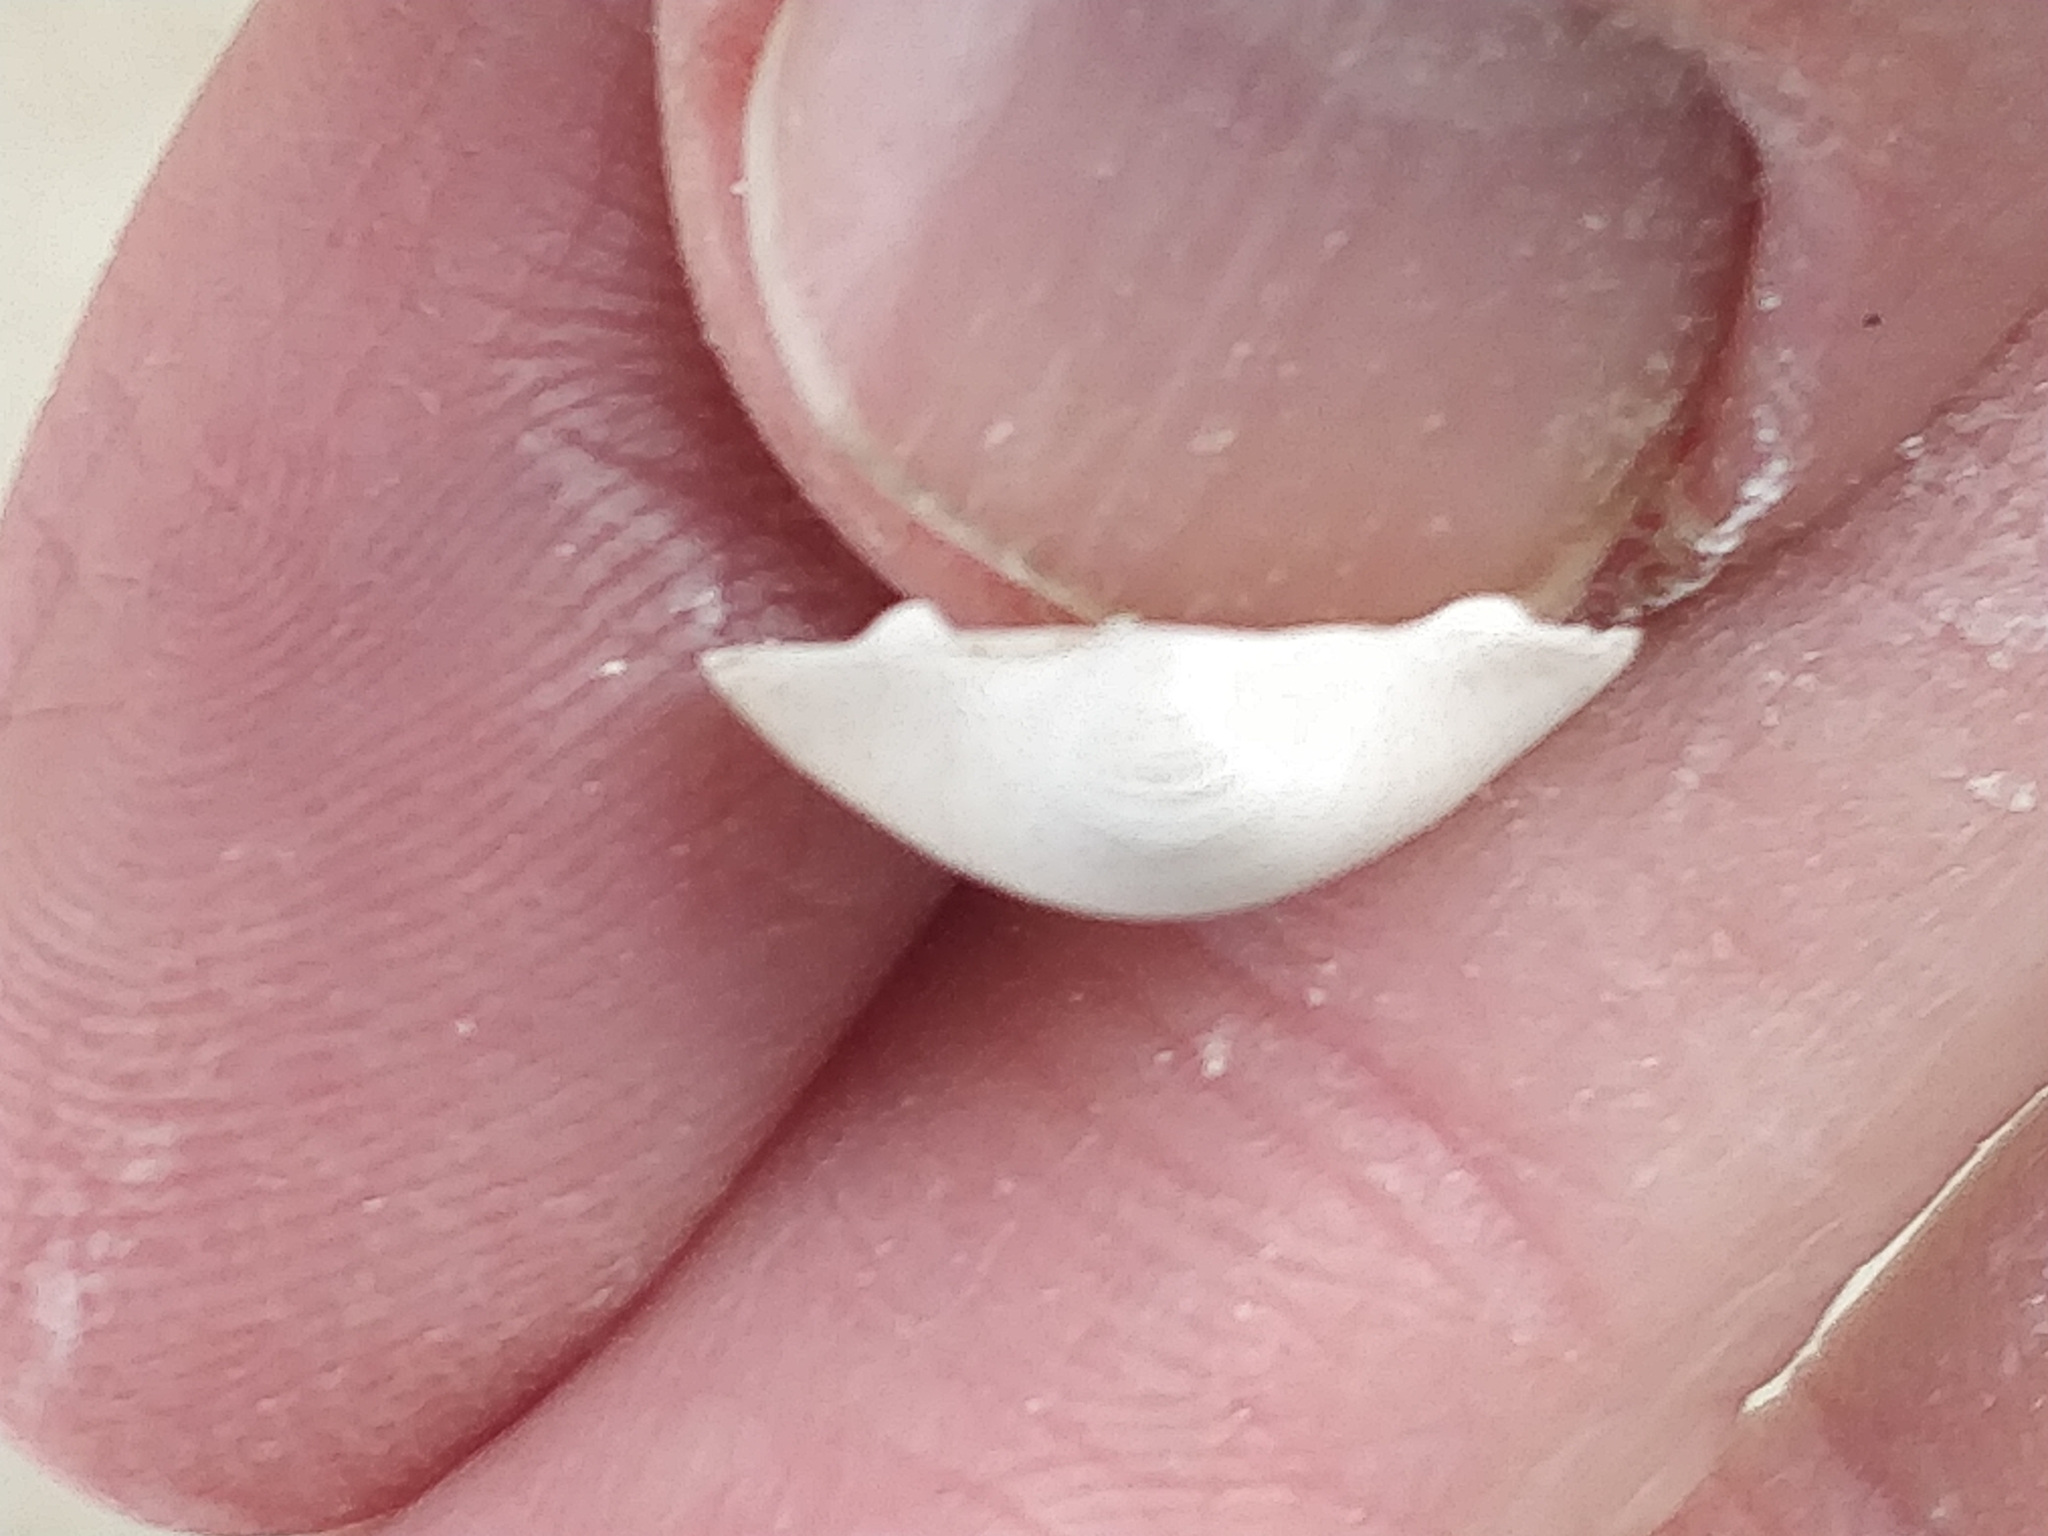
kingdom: Animalia
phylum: Mollusca
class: Bivalvia
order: Sphaeriida
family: Sphaeriidae
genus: Sphaerium
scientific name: Sphaerium striatinum
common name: Striated fingernailclam
